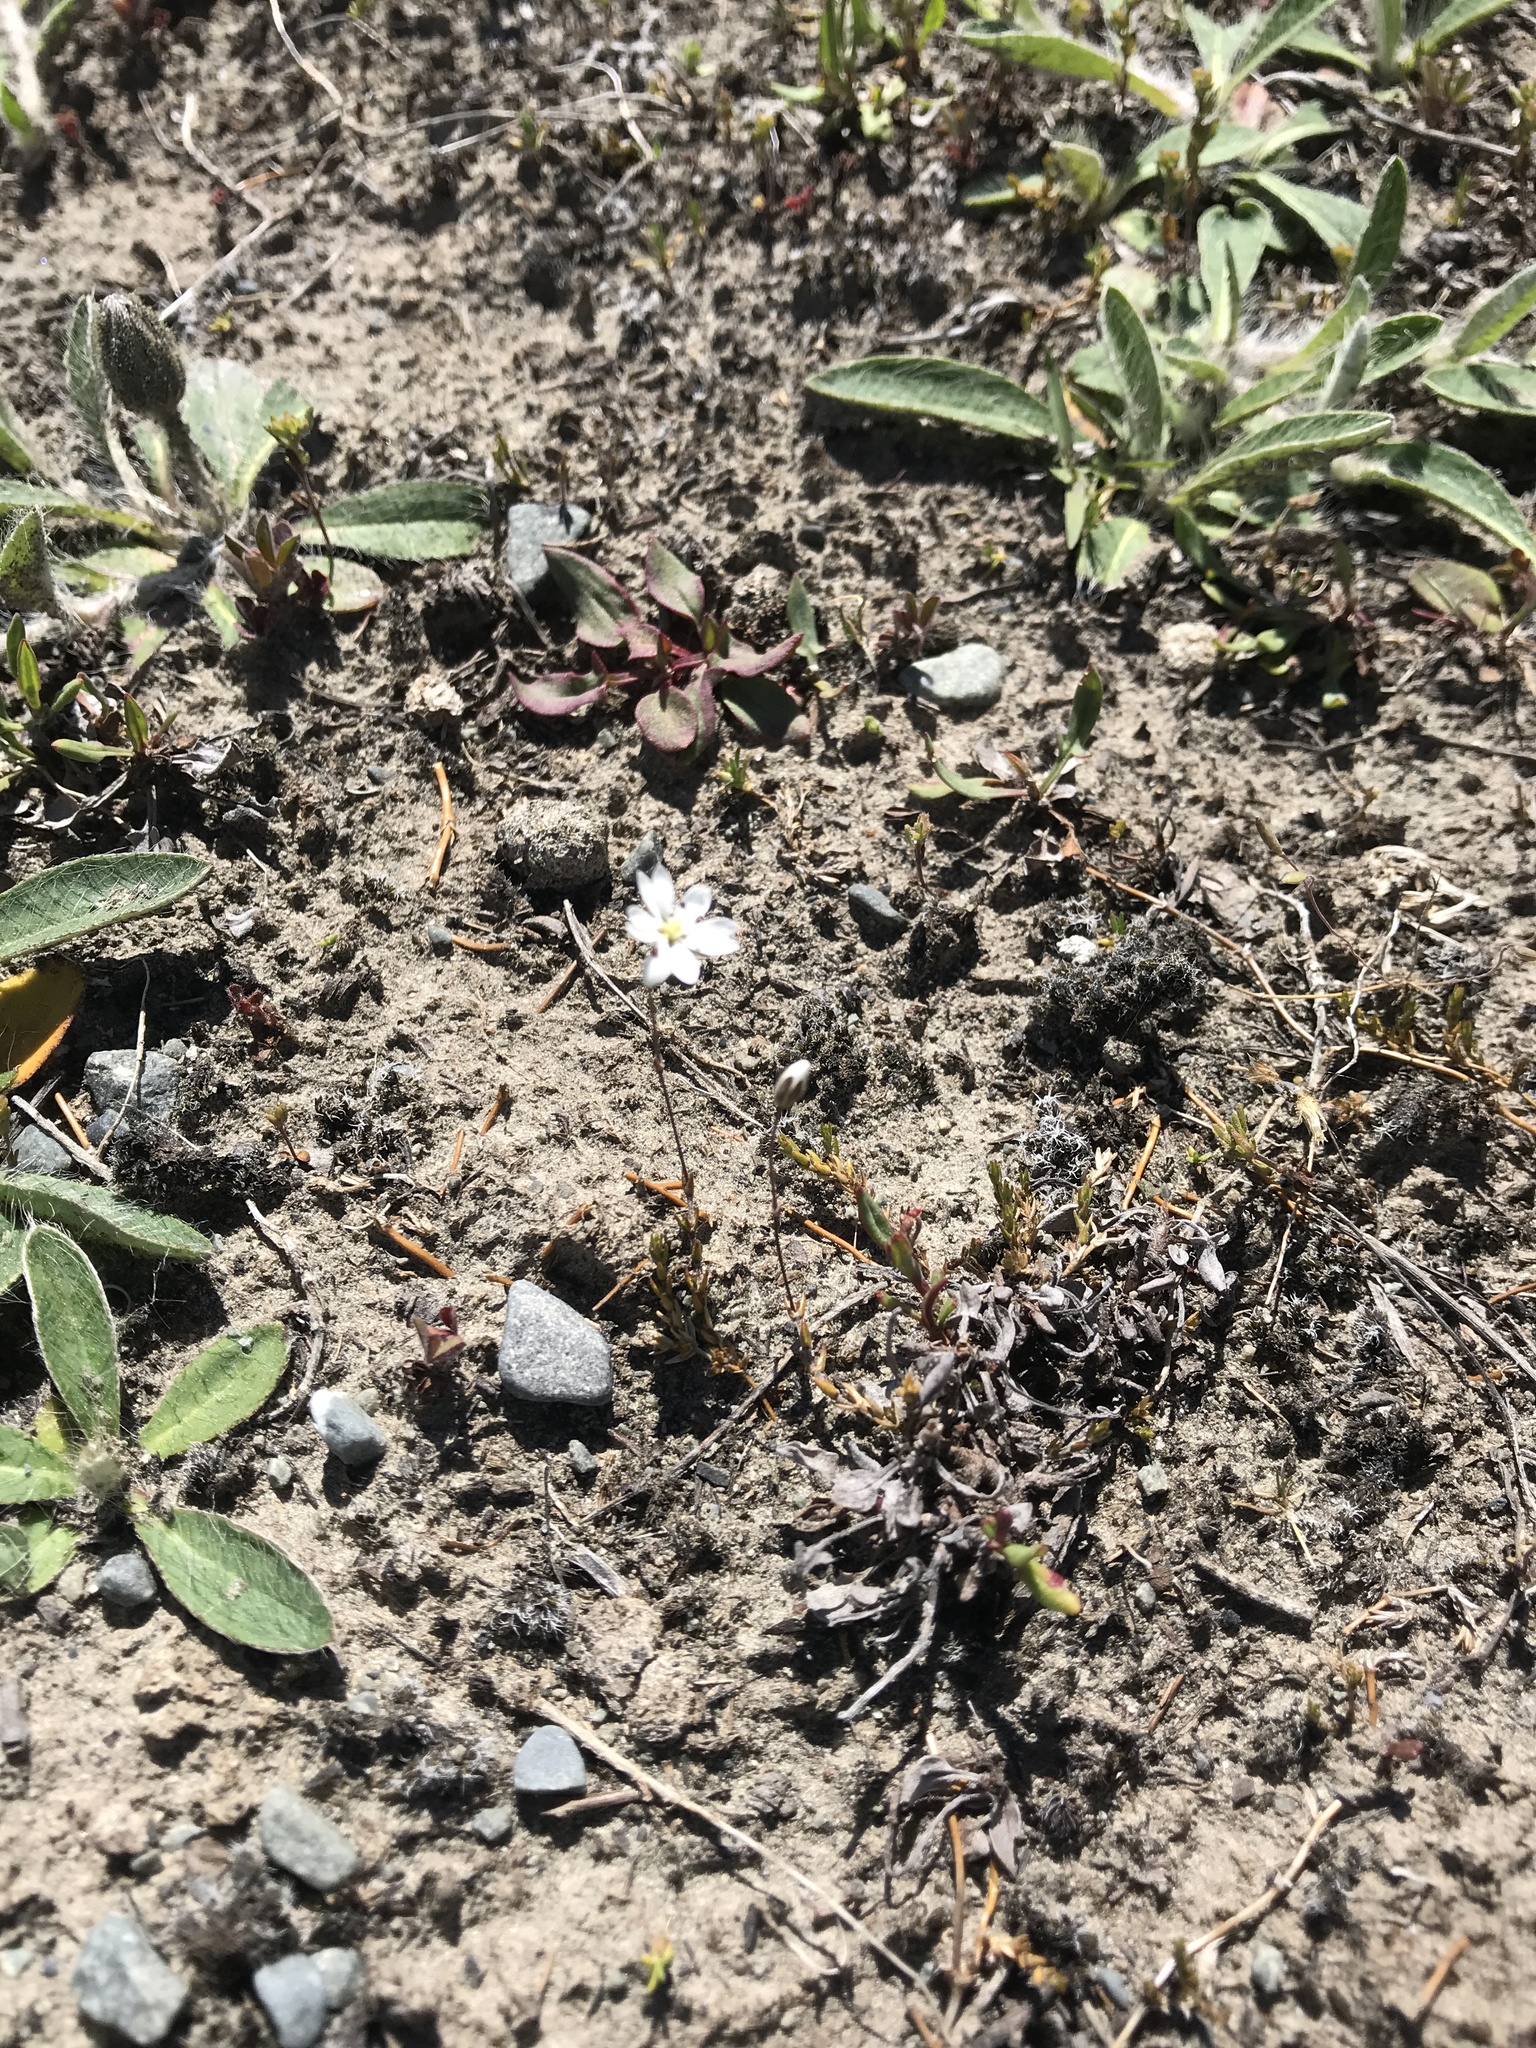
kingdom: Plantae
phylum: Tracheophyta
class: Magnoliopsida
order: Caryophyllales
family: Caryophyllaceae
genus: Stellaria
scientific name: Stellaria gracilenta
